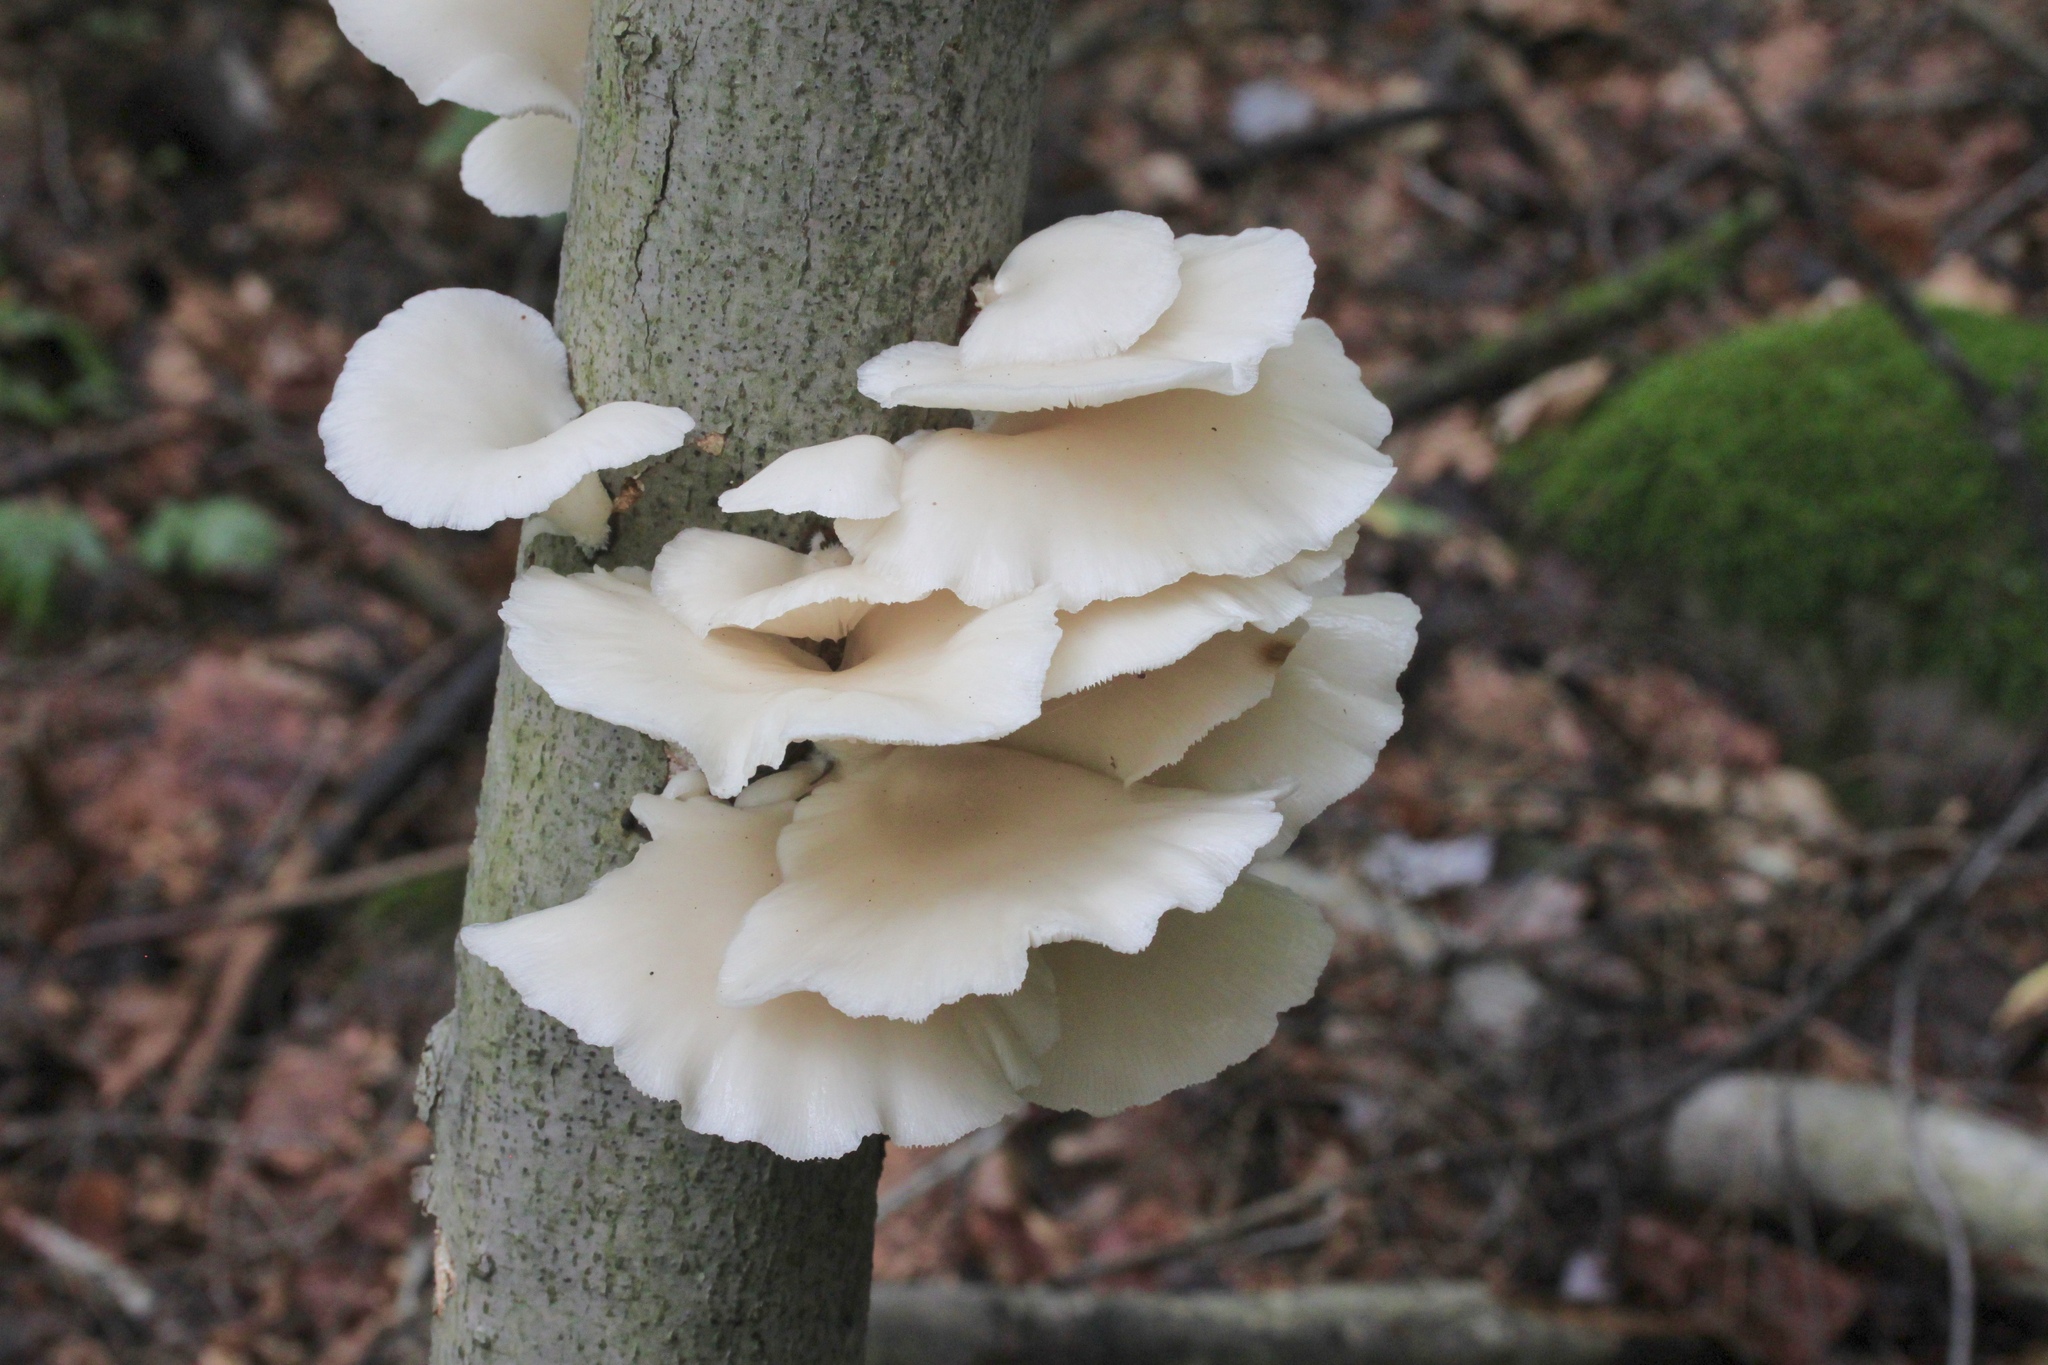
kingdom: Fungi
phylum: Basidiomycota
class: Agaricomycetes
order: Agaricales
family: Pleurotaceae
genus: Pleurotus
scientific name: Pleurotus pulmonarius
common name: Pale oyster
